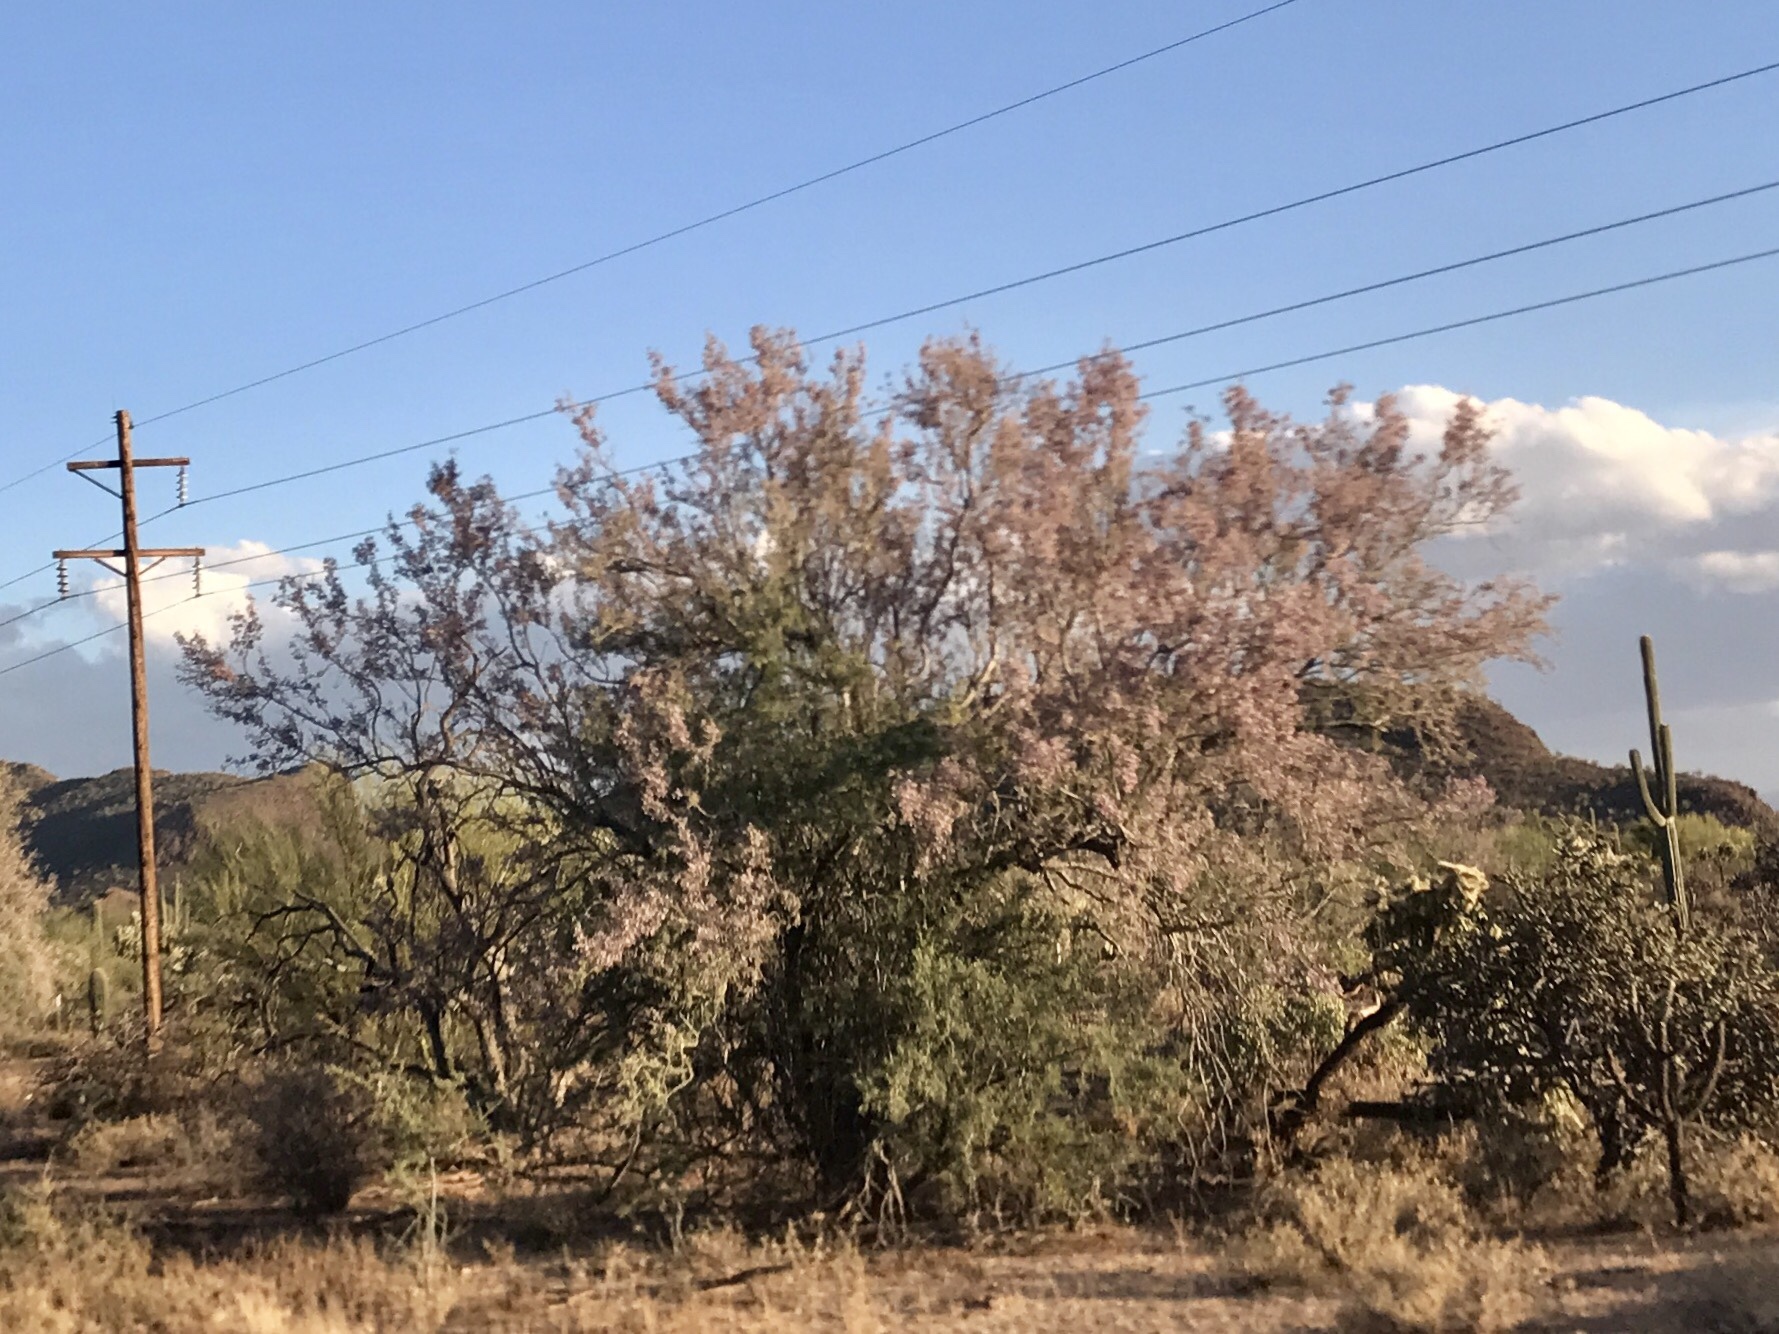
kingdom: Plantae
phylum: Tracheophyta
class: Magnoliopsida
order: Fabales
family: Fabaceae
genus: Olneya
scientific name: Olneya tesota
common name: Desert ironwood
